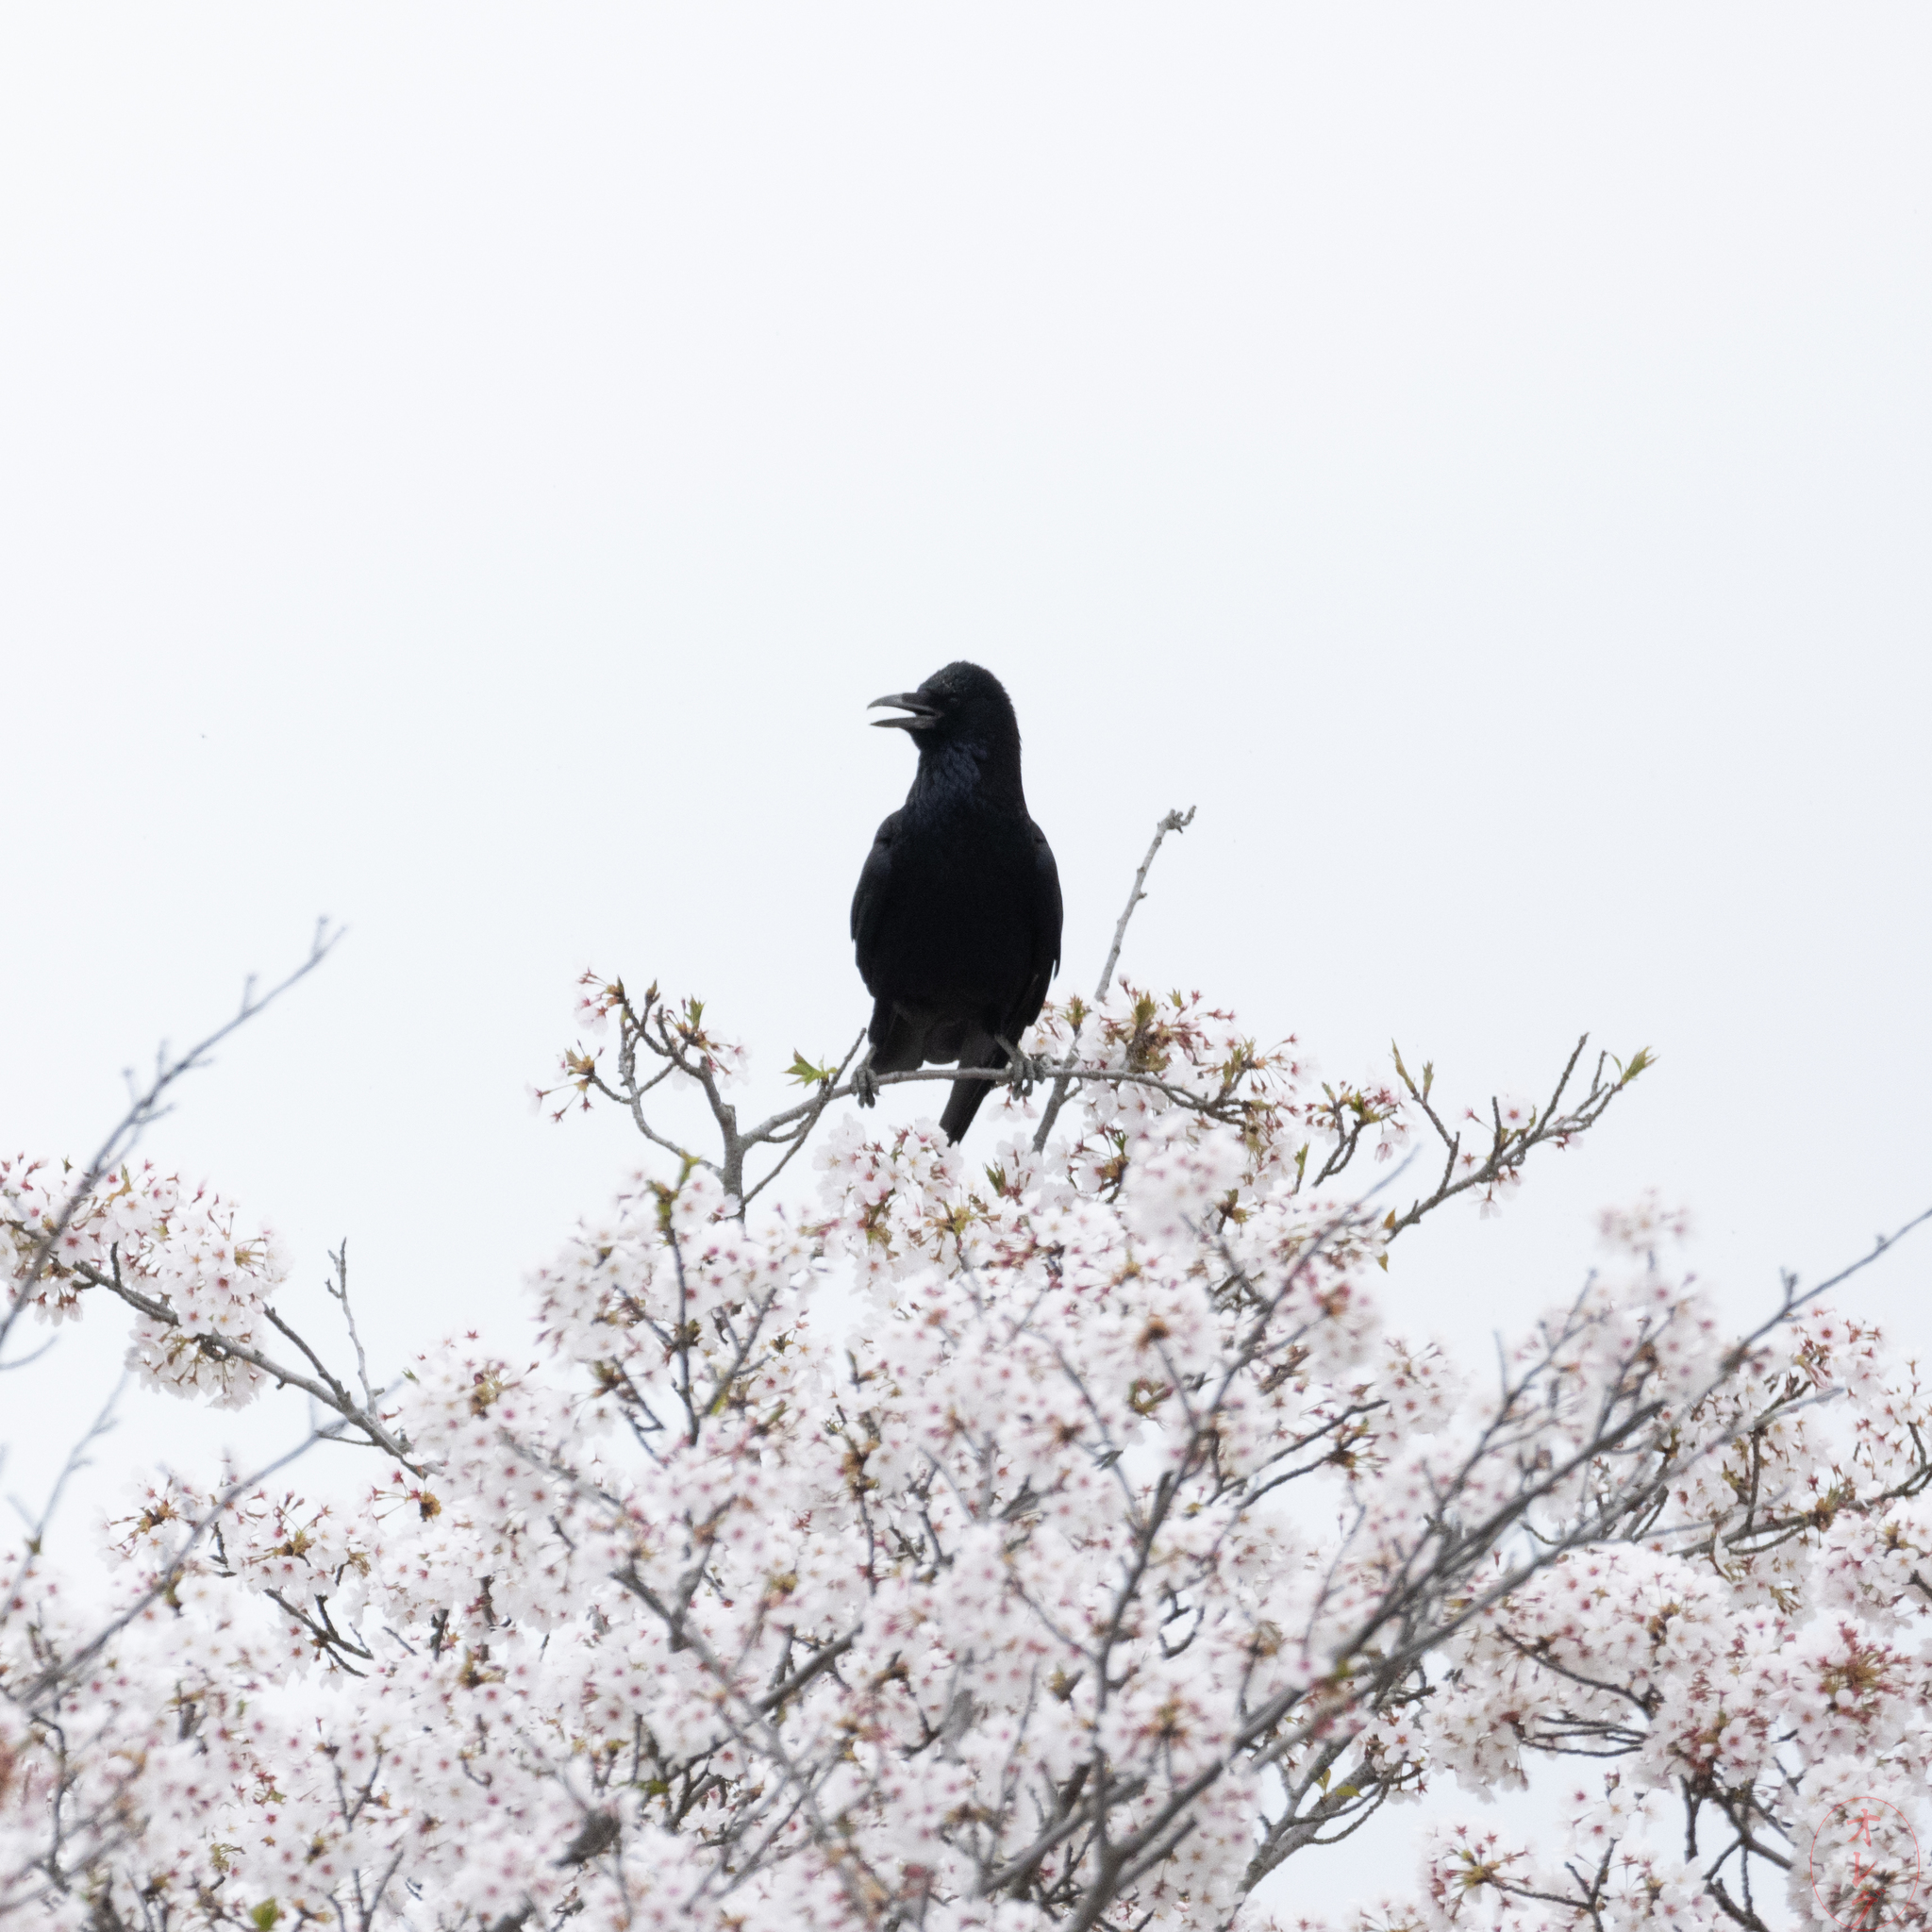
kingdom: Animalia
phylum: Chordata
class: Aves
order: Passeriformes
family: Corvidae
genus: Corvus
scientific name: Corvus macrorhynchos
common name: Large-billed crow
